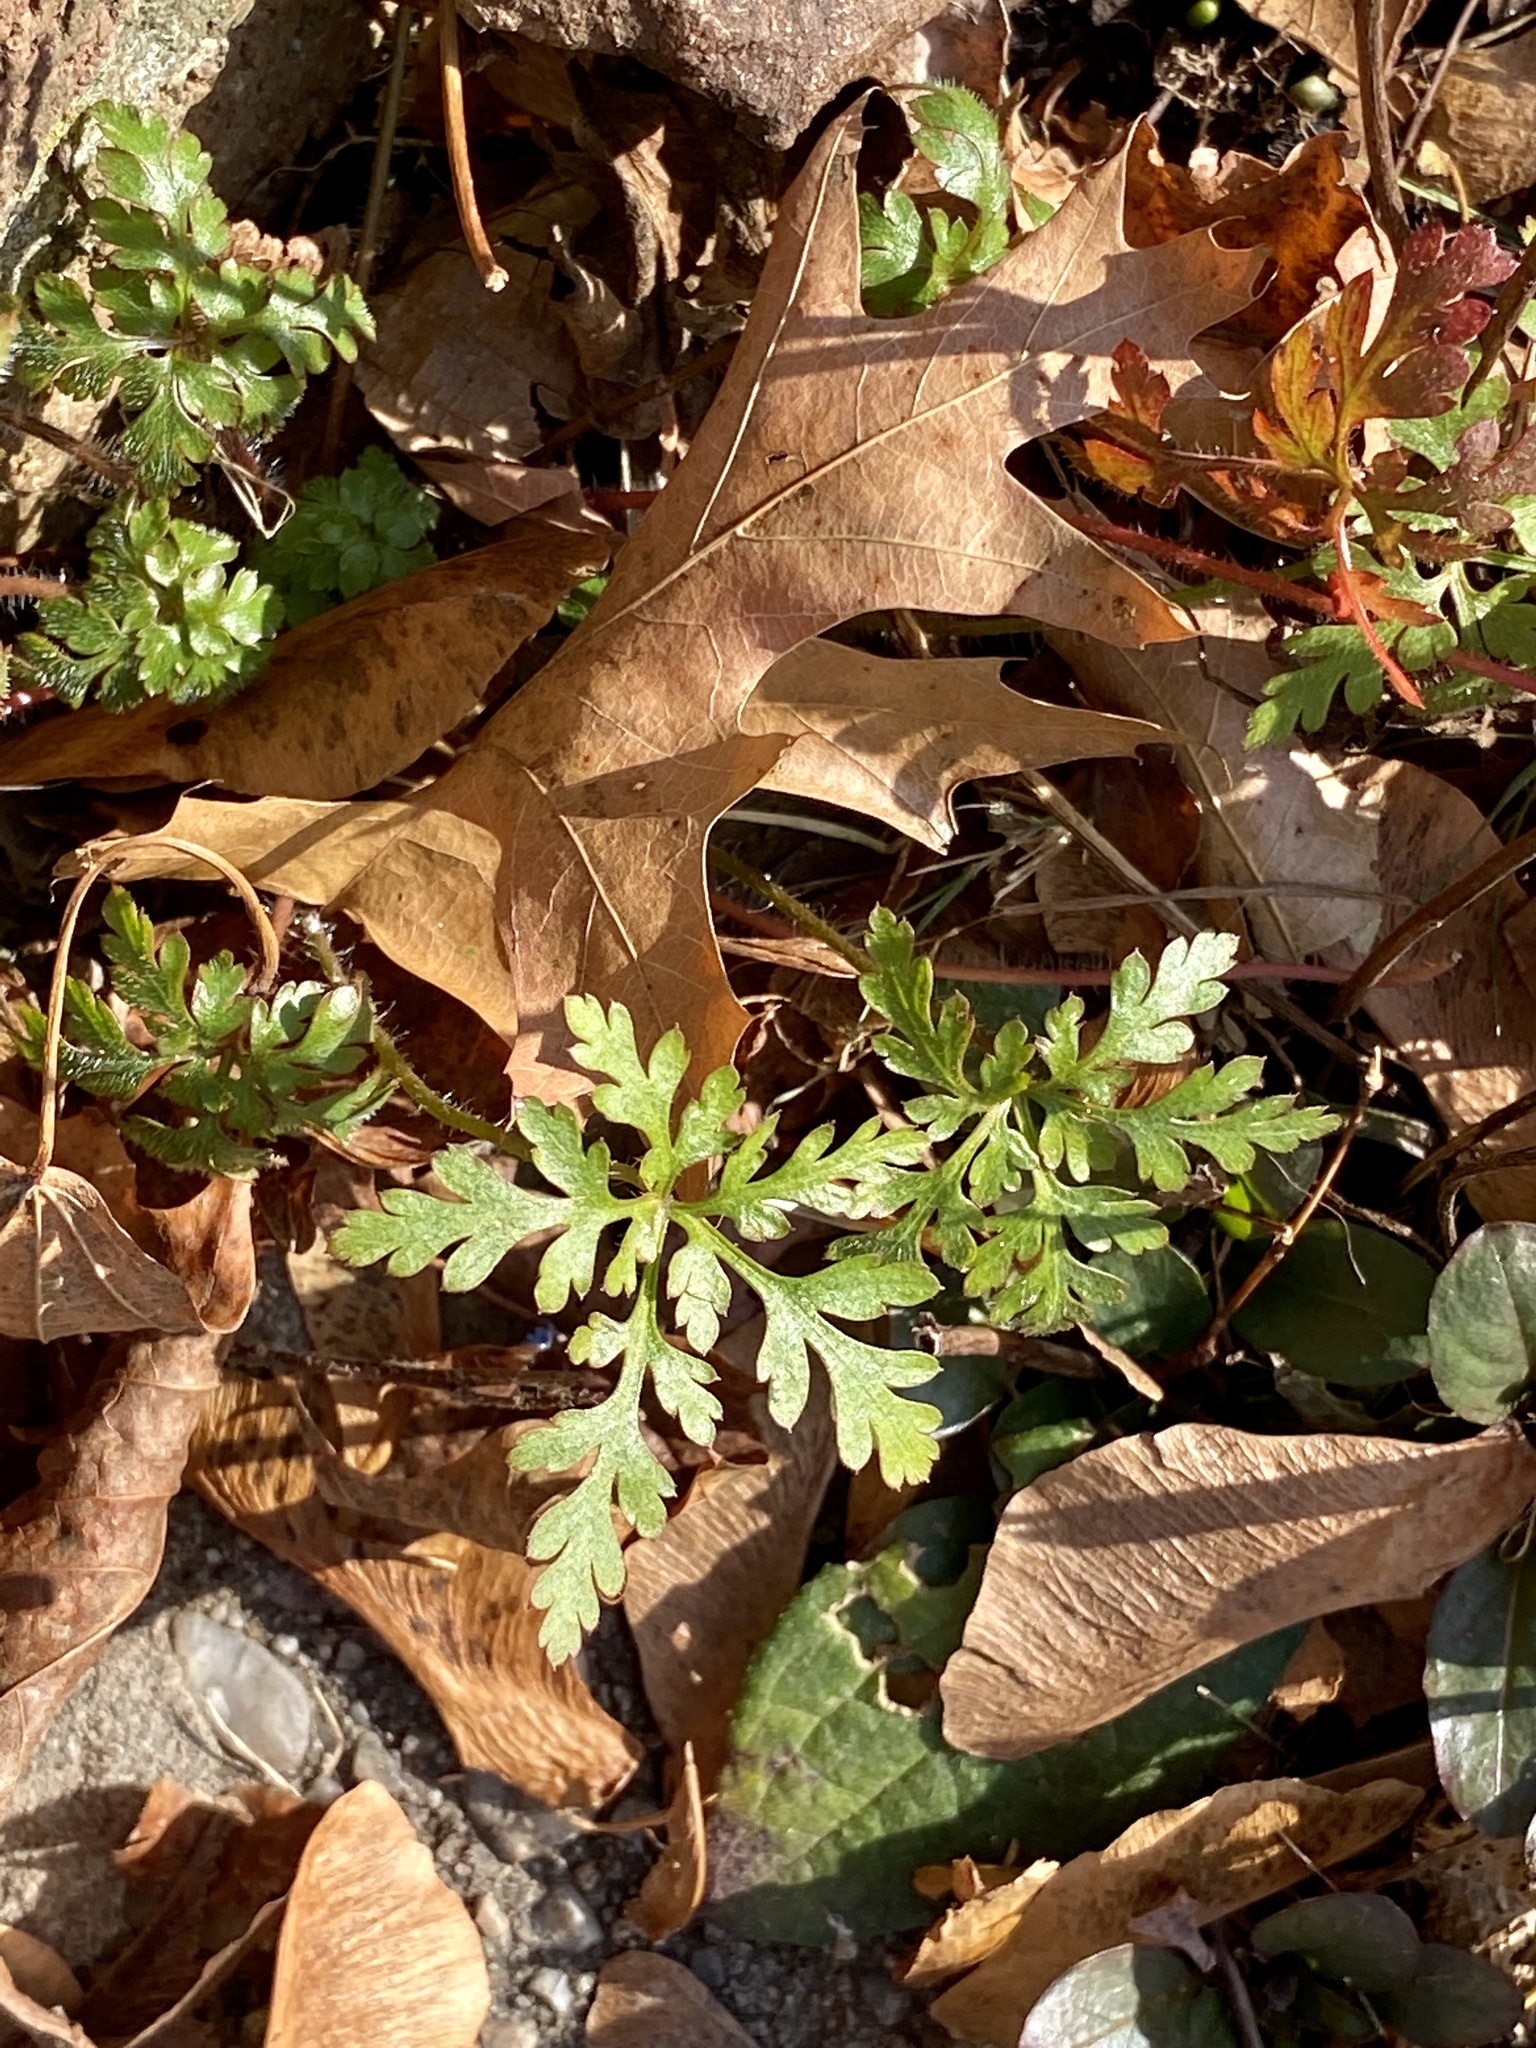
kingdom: Plantae
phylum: Tracheophyta
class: Magnoliopsida
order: Geraniales
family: Geraniaceae
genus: Geranium
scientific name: Geranium robertianum
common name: Herb-robert
